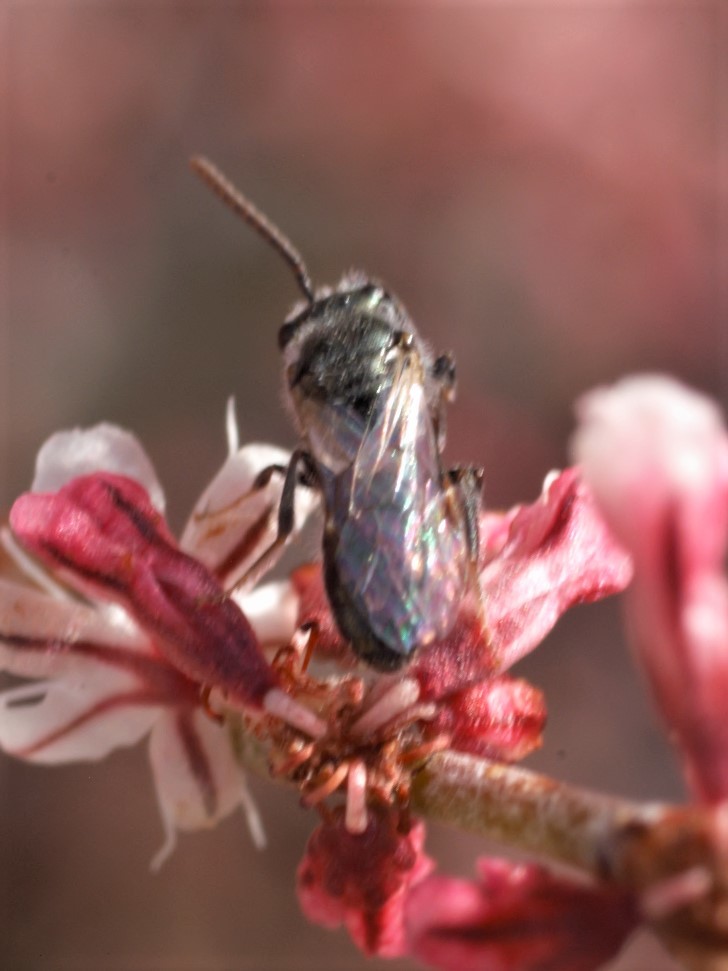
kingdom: Animalia
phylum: Arthropoda
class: Insecta
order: Hymenoptera
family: Halictidae
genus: Dialictus
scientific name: Dialictus
